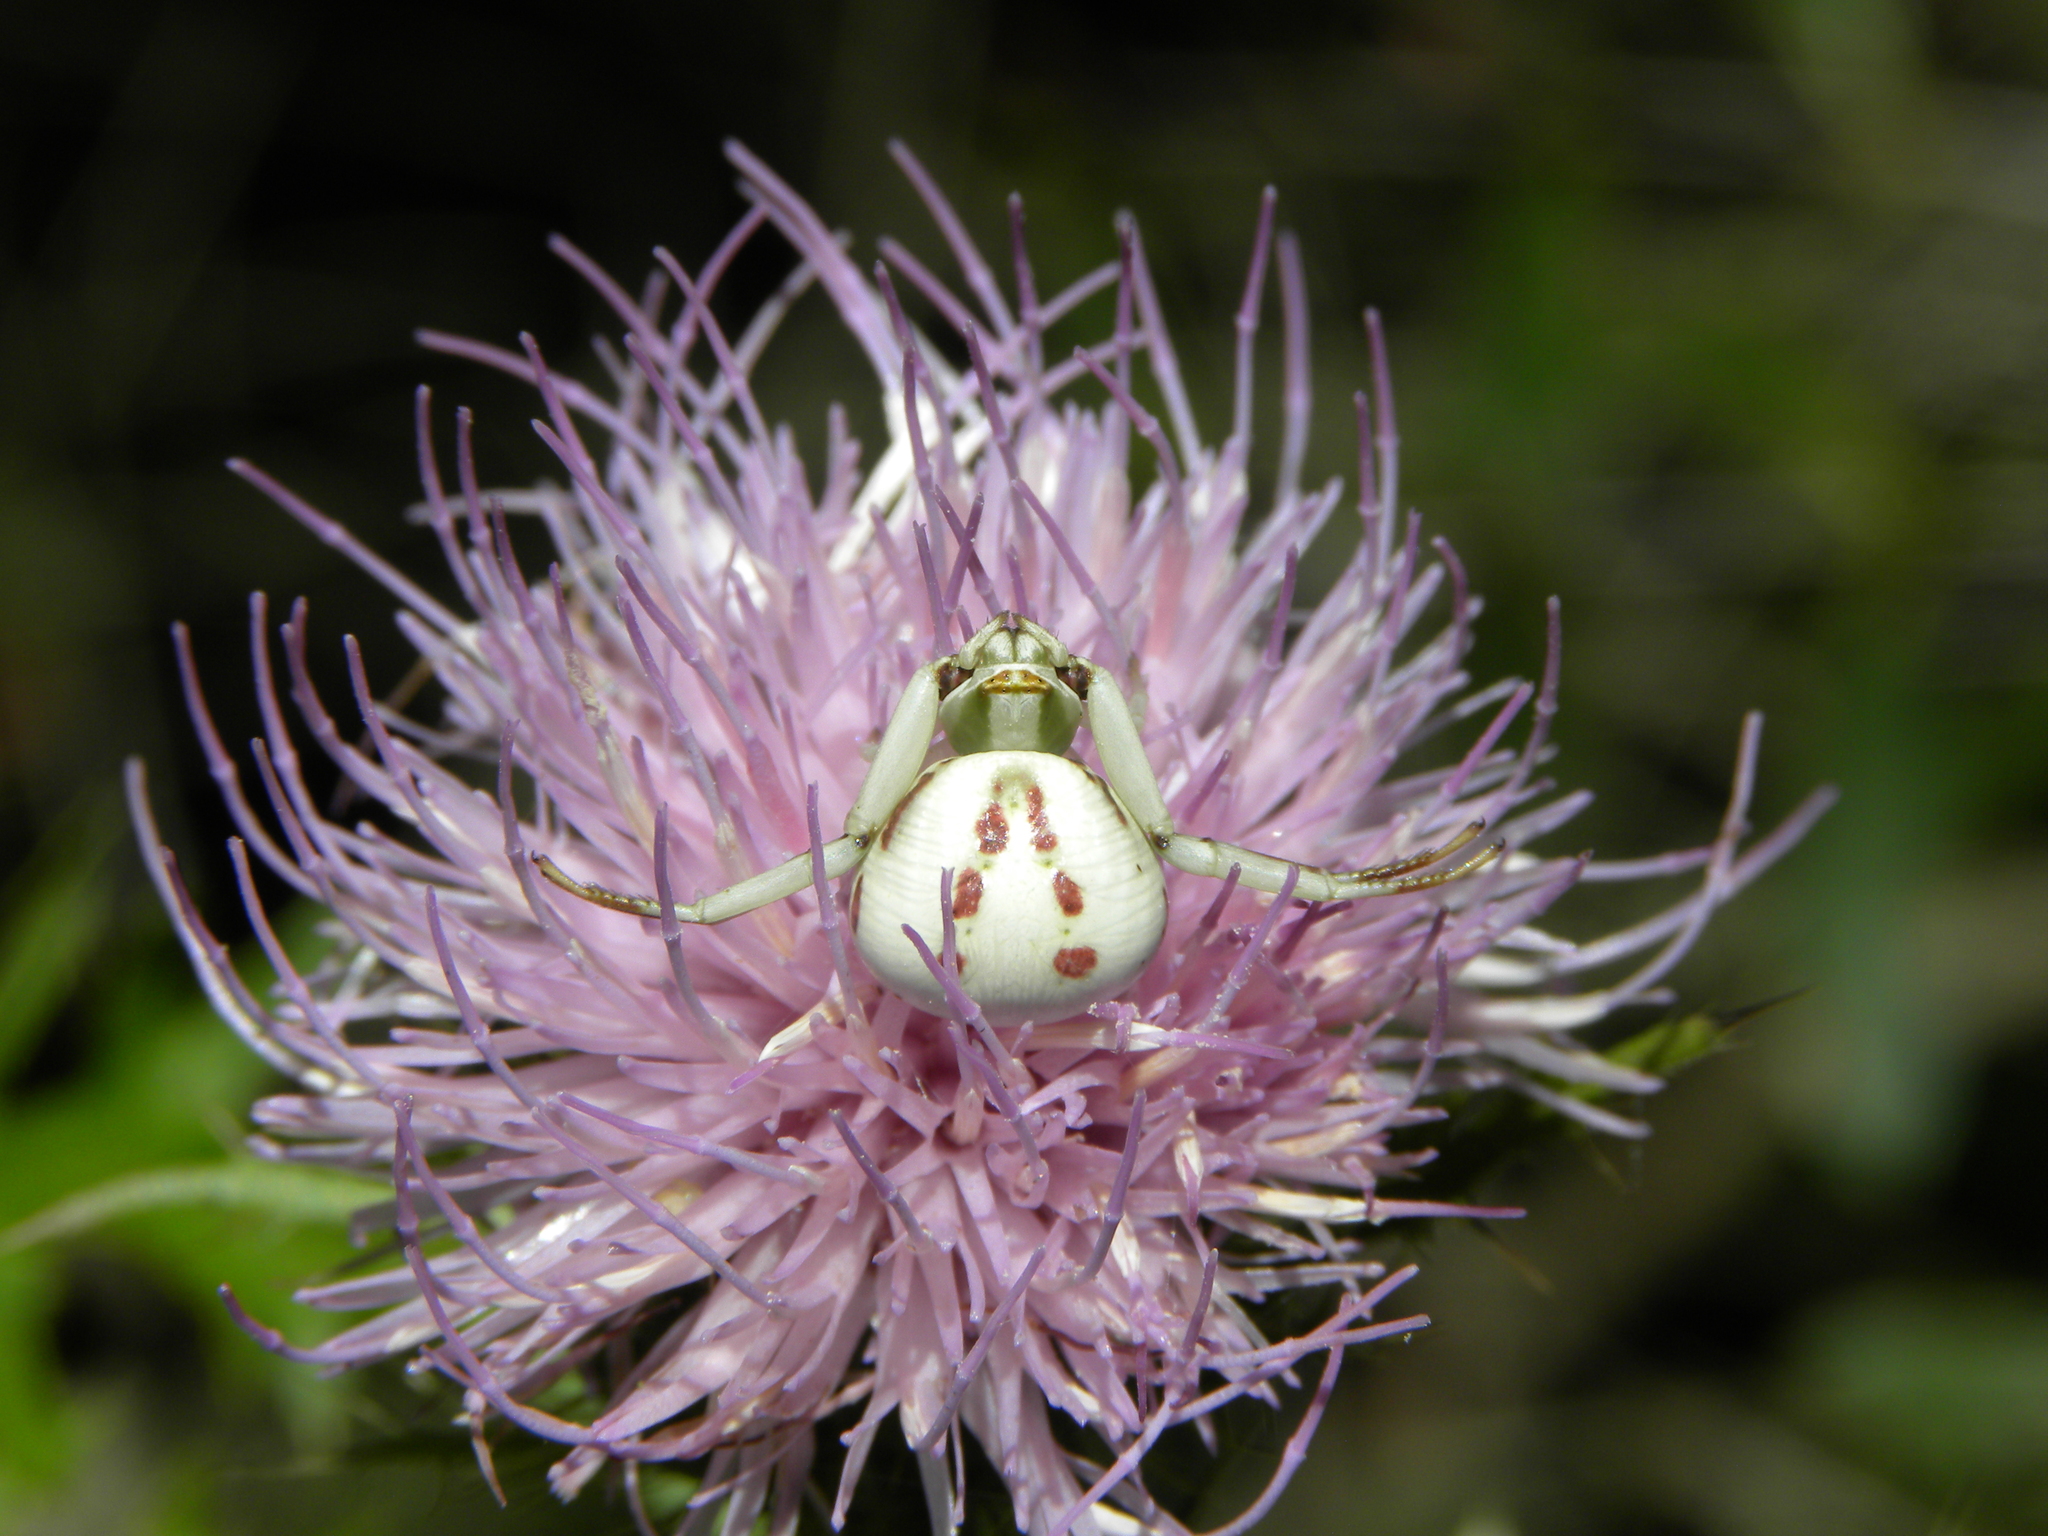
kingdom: Animalia
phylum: Arthropoda
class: Arachnida
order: Araneae
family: Thomisidae
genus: Misumenoides
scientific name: Misumenoides formosipes
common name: White-banded crab spider
